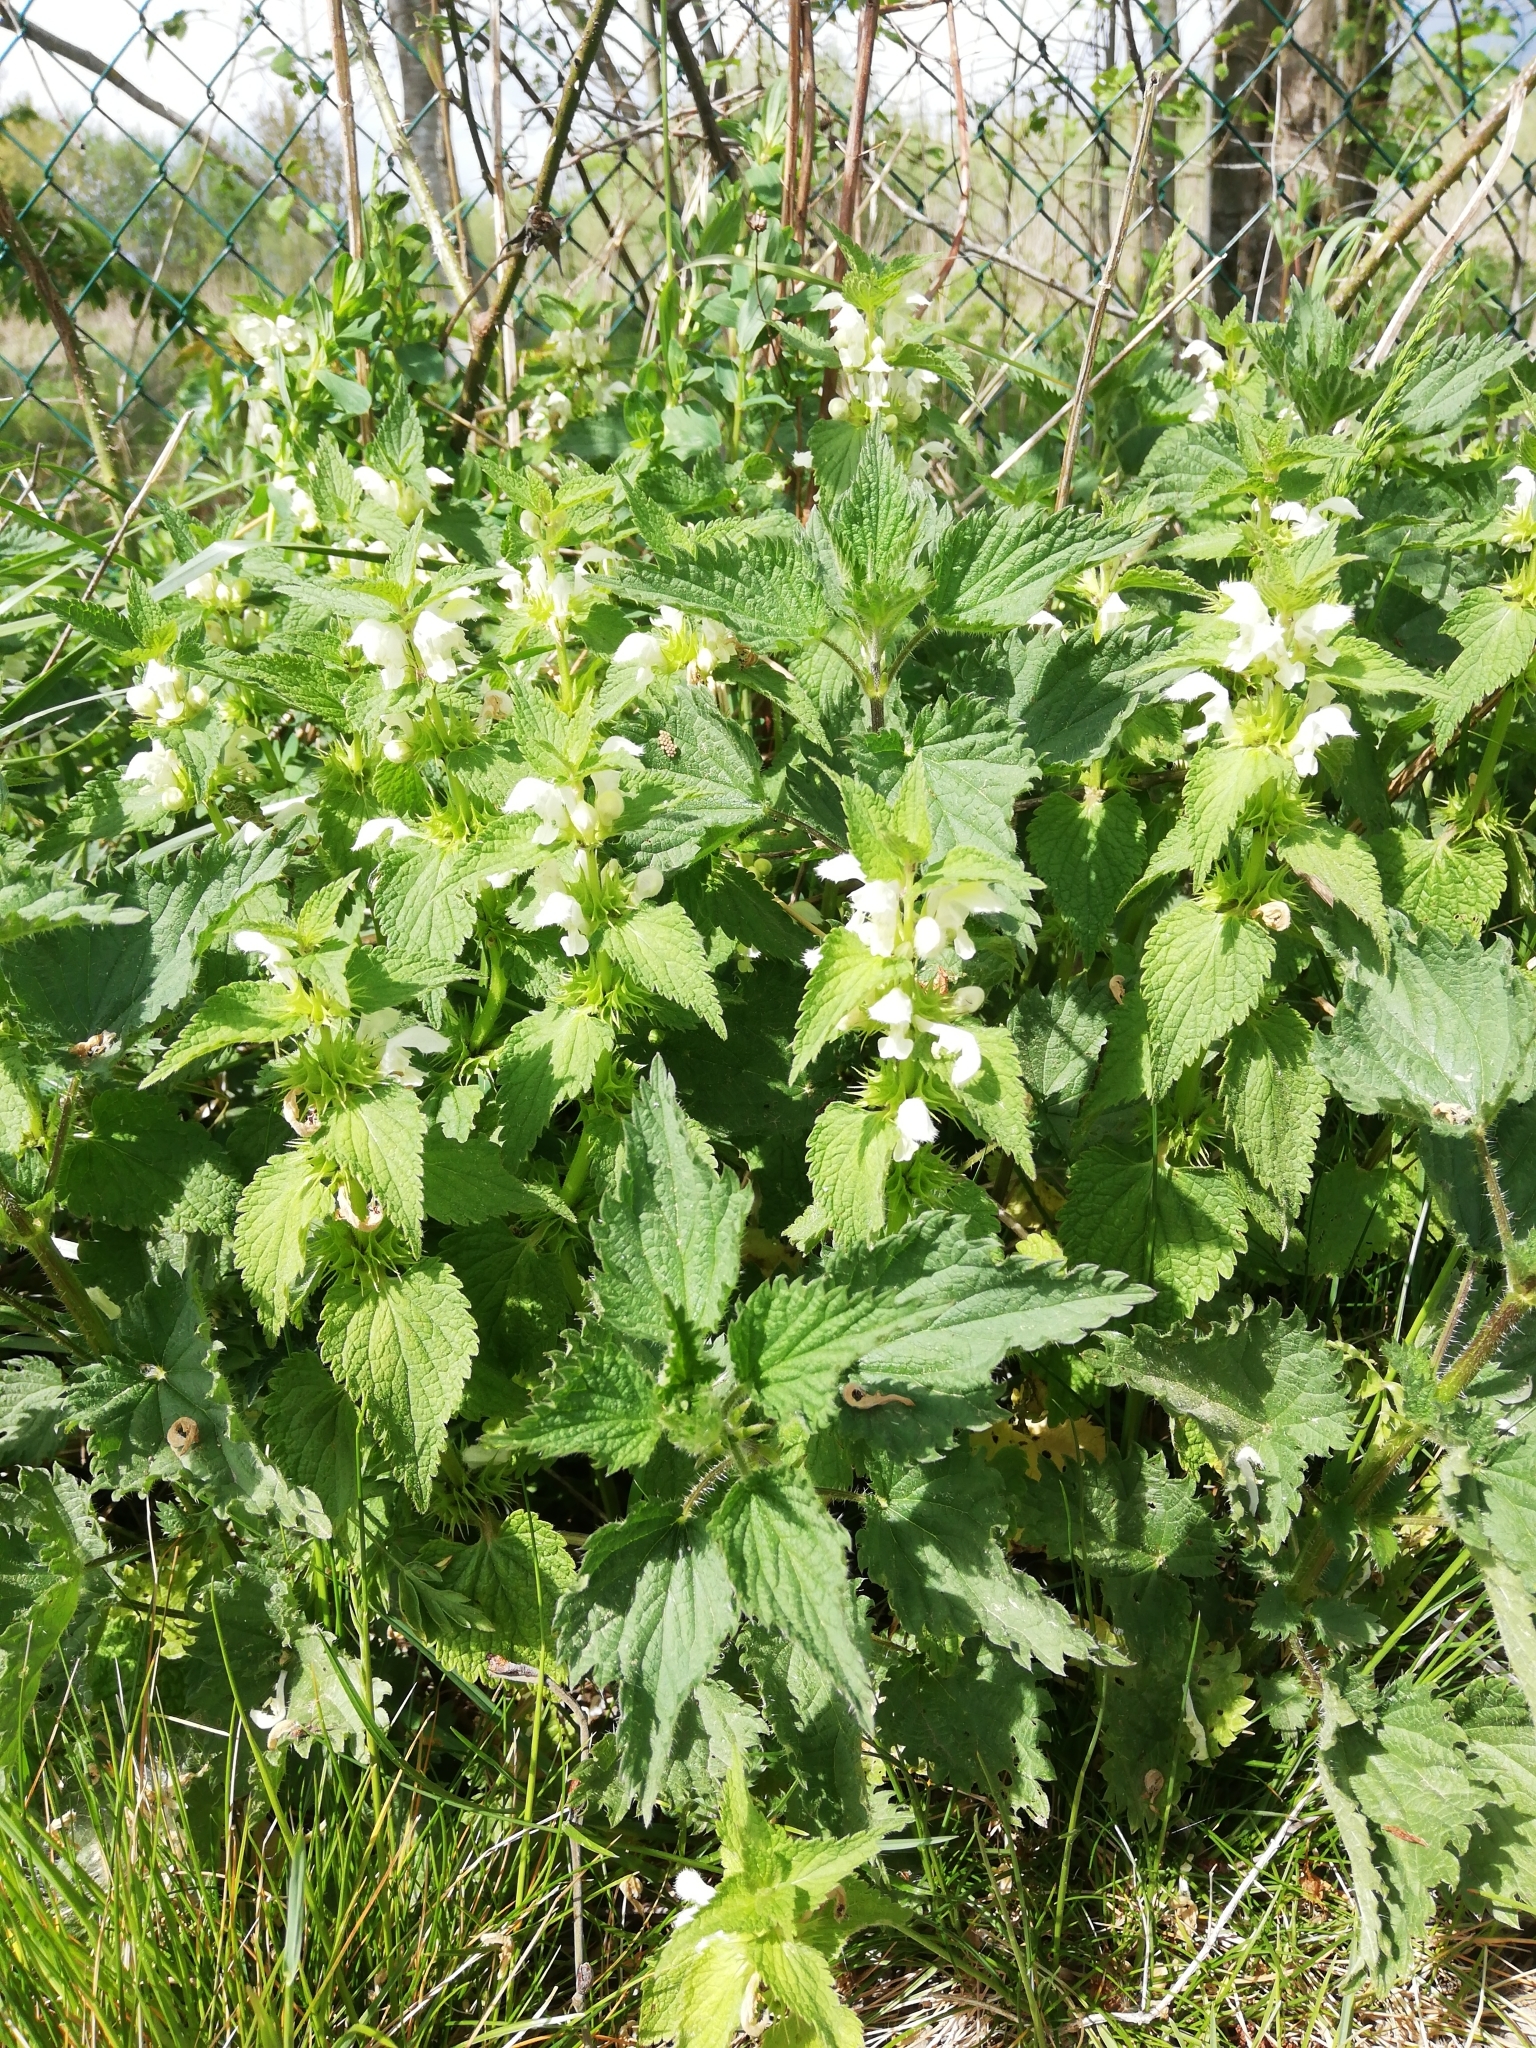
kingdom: Plantae
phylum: Tracheophyta
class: Magnoliopsida
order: Lamiales
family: Lamiaceae
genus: Lamium
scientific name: Lamium album
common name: White dead-nettle
